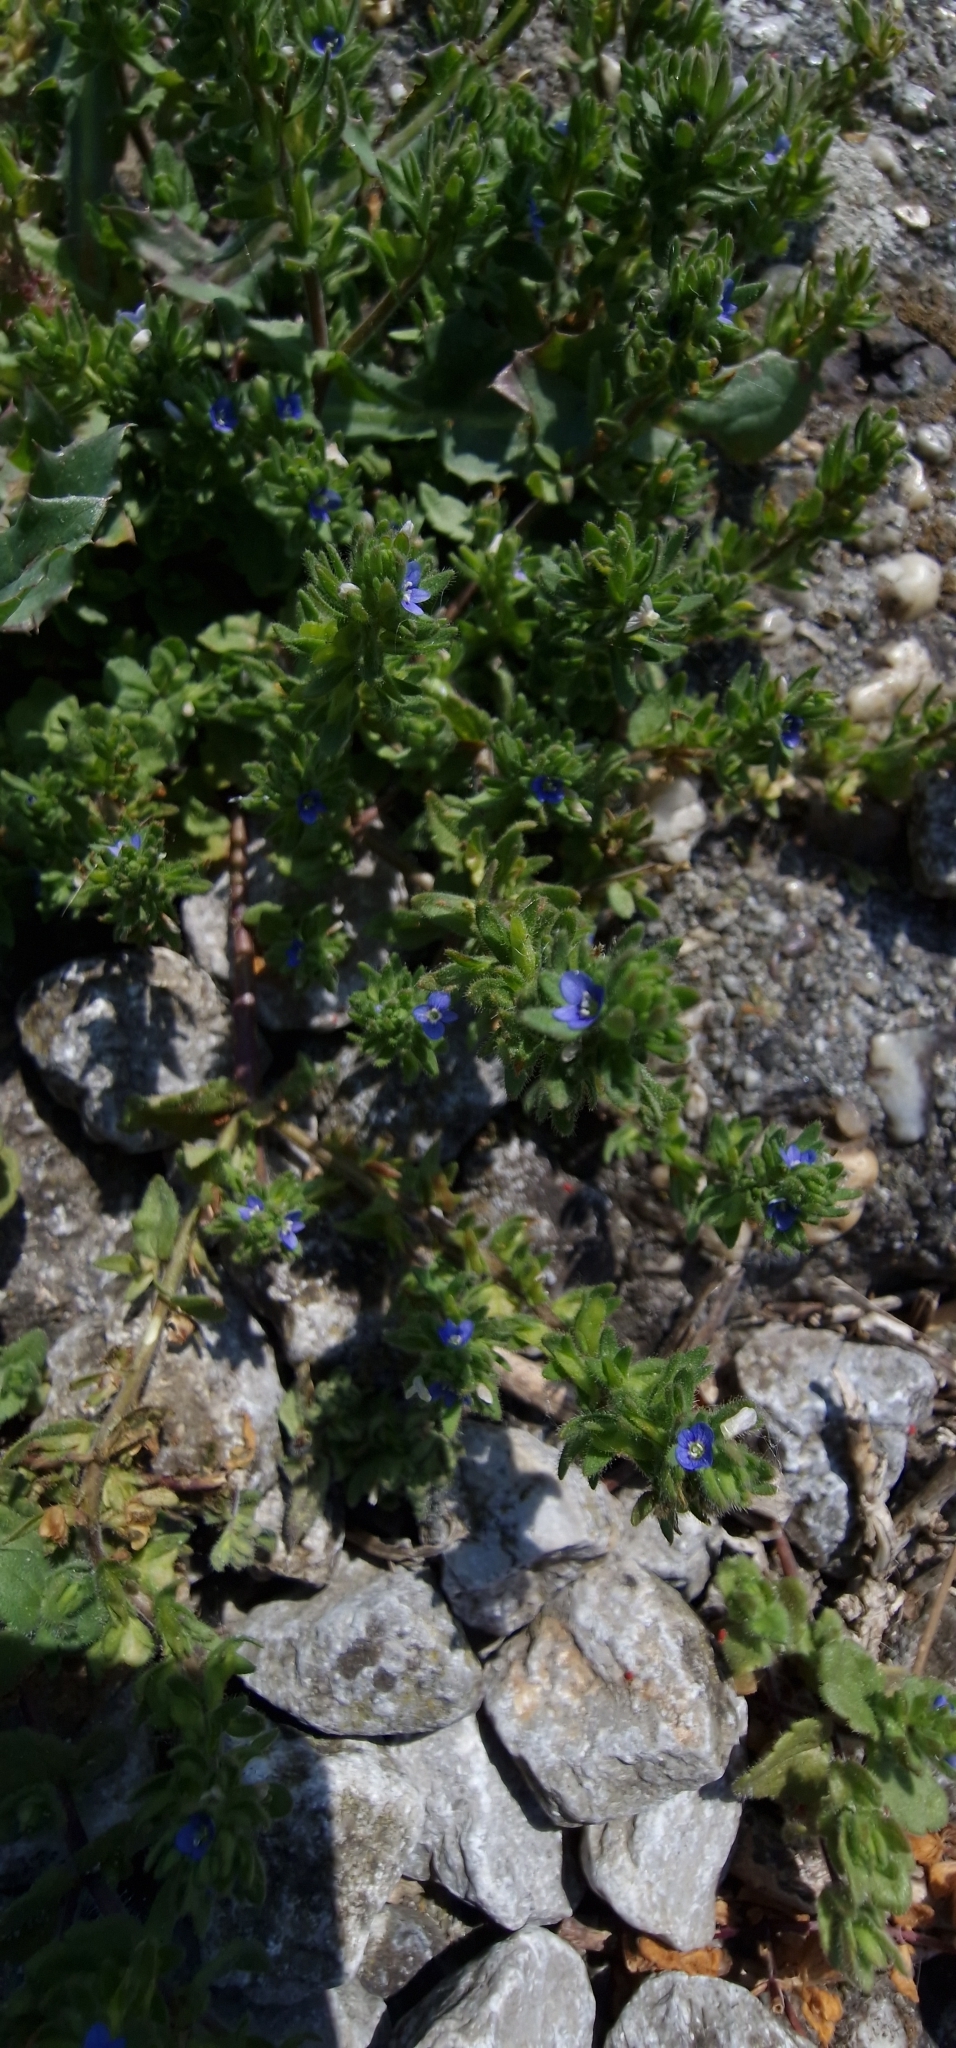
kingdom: Plantae
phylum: Tracheophyta
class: Magnoliopsida
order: Lamiales
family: Plantaginaceae
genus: Veronica
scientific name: Veronica arvensis
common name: Corn speedwell
